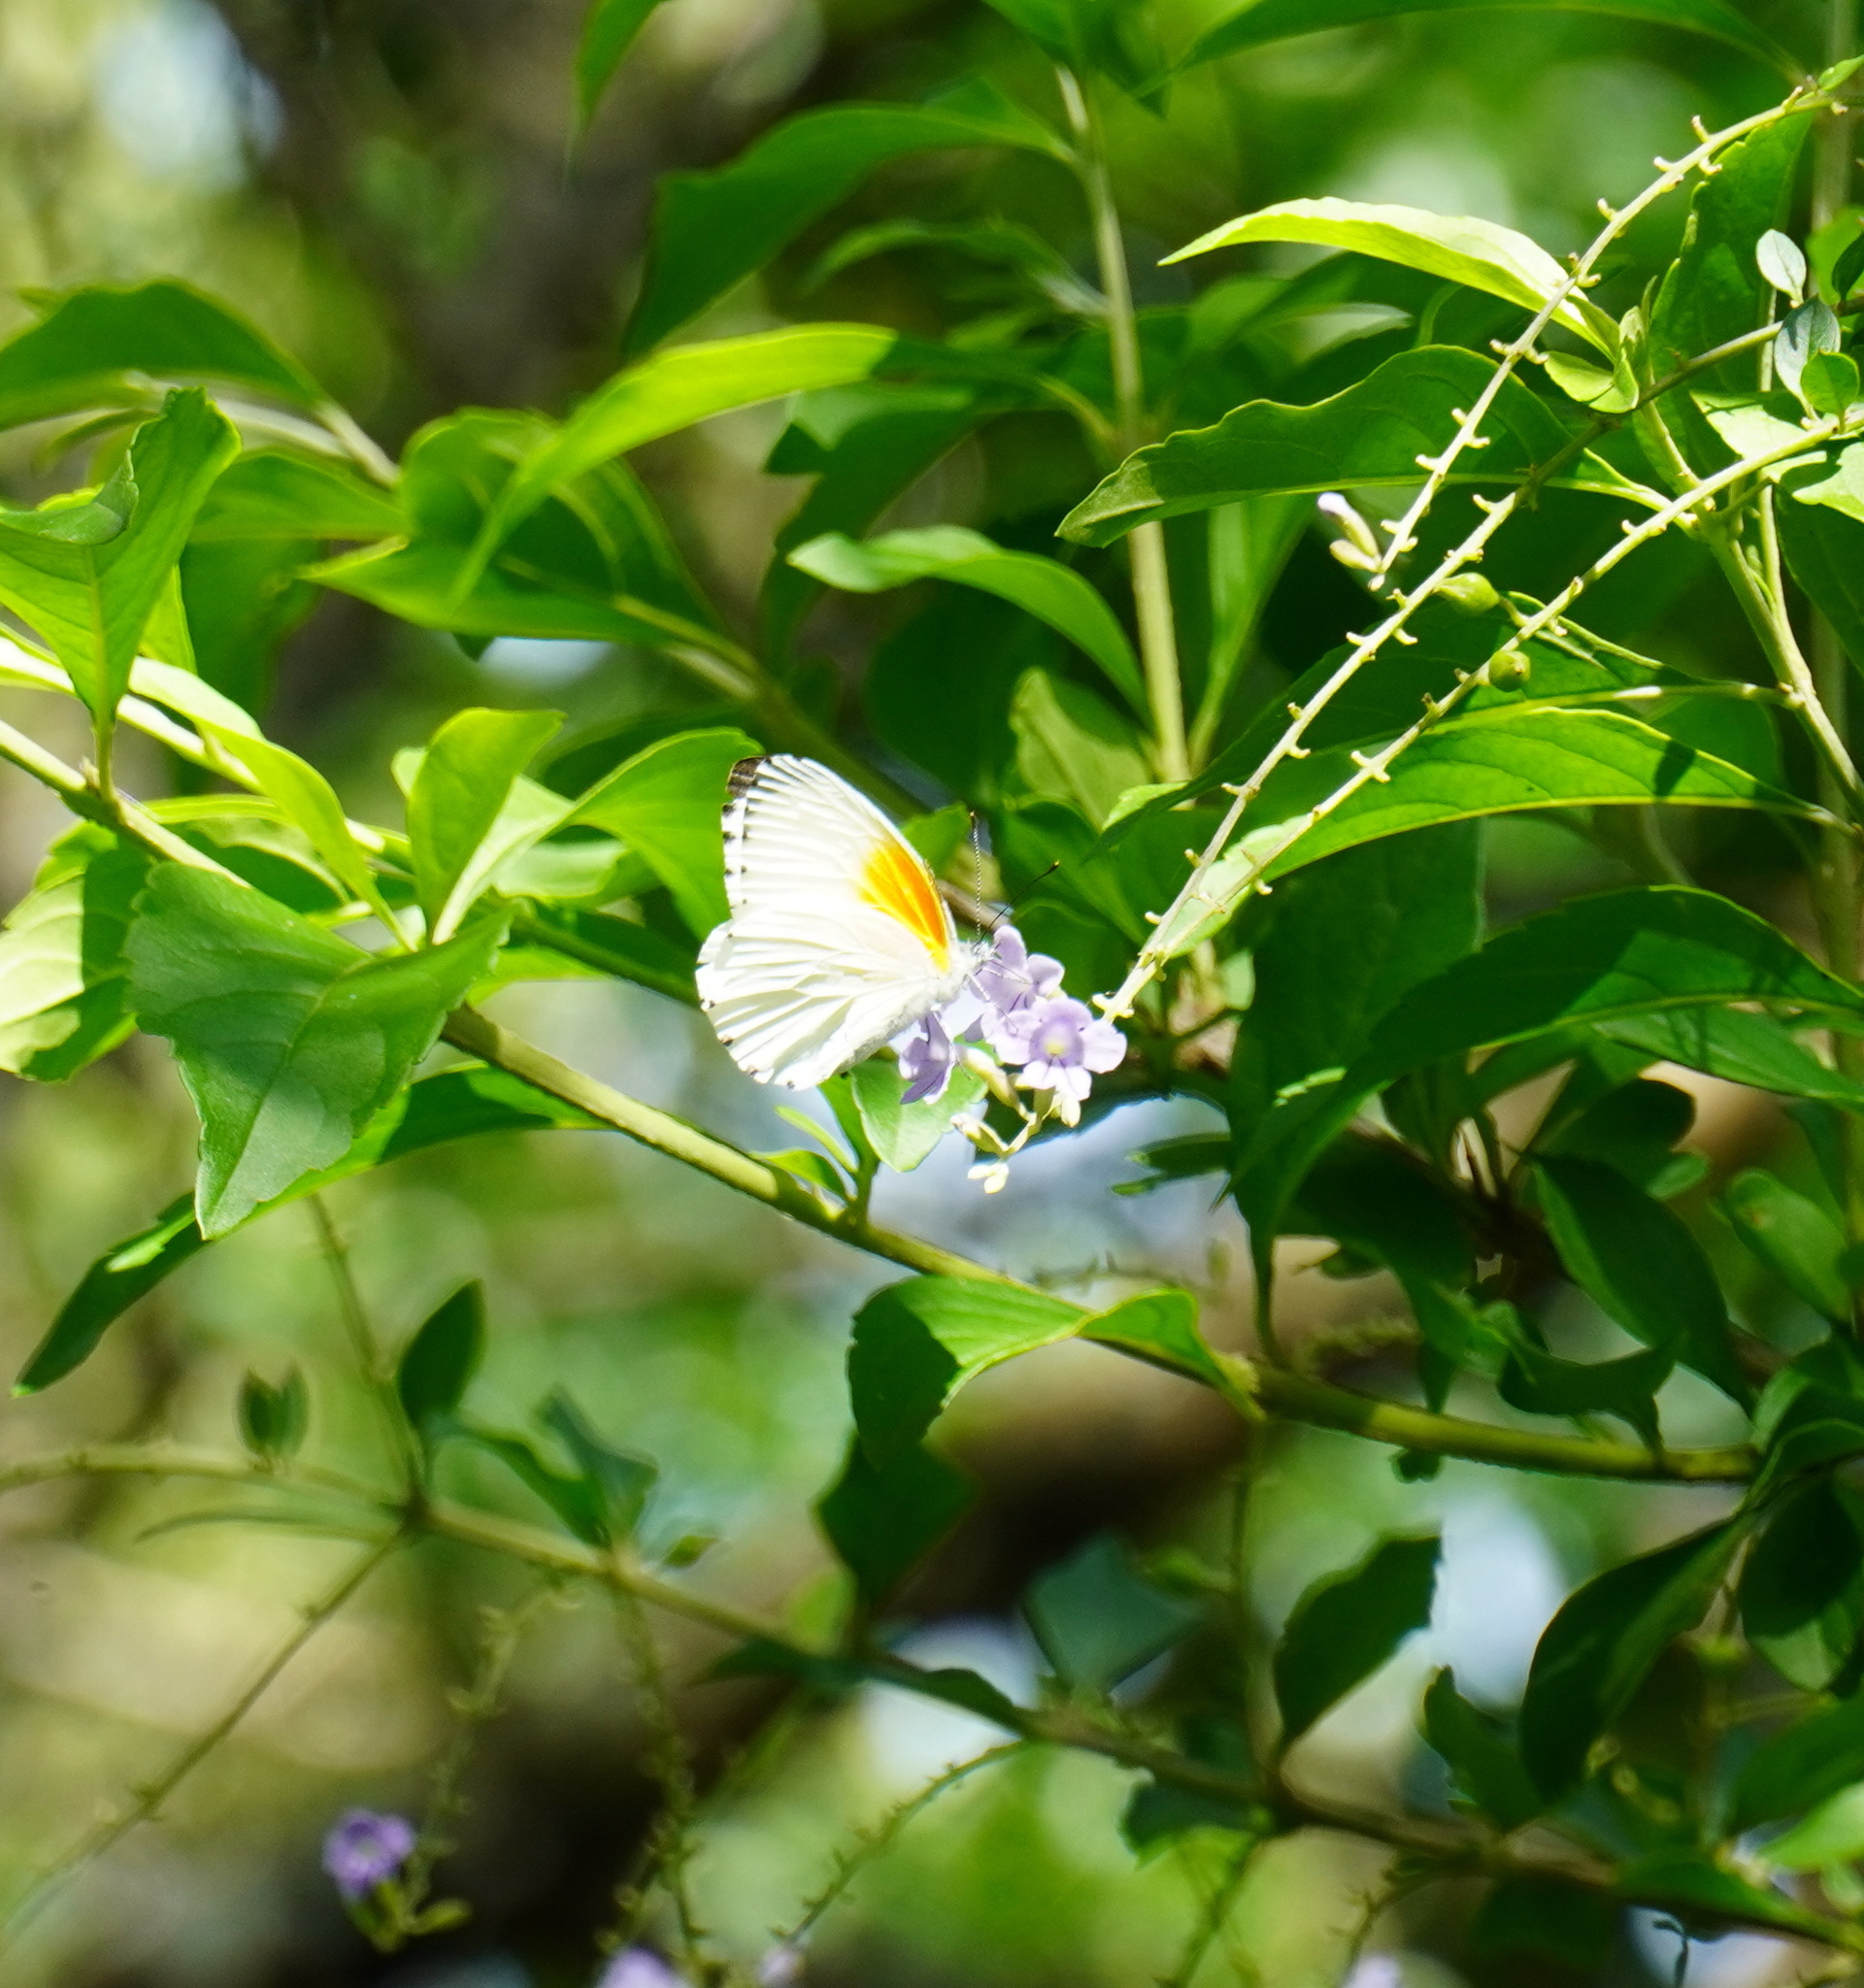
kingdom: Animalia
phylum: Arthropoda
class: Insecta
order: Lepidoptera
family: Pieridae
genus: Mylothris
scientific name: Mylothris rueppellii
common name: Twin dotted border
